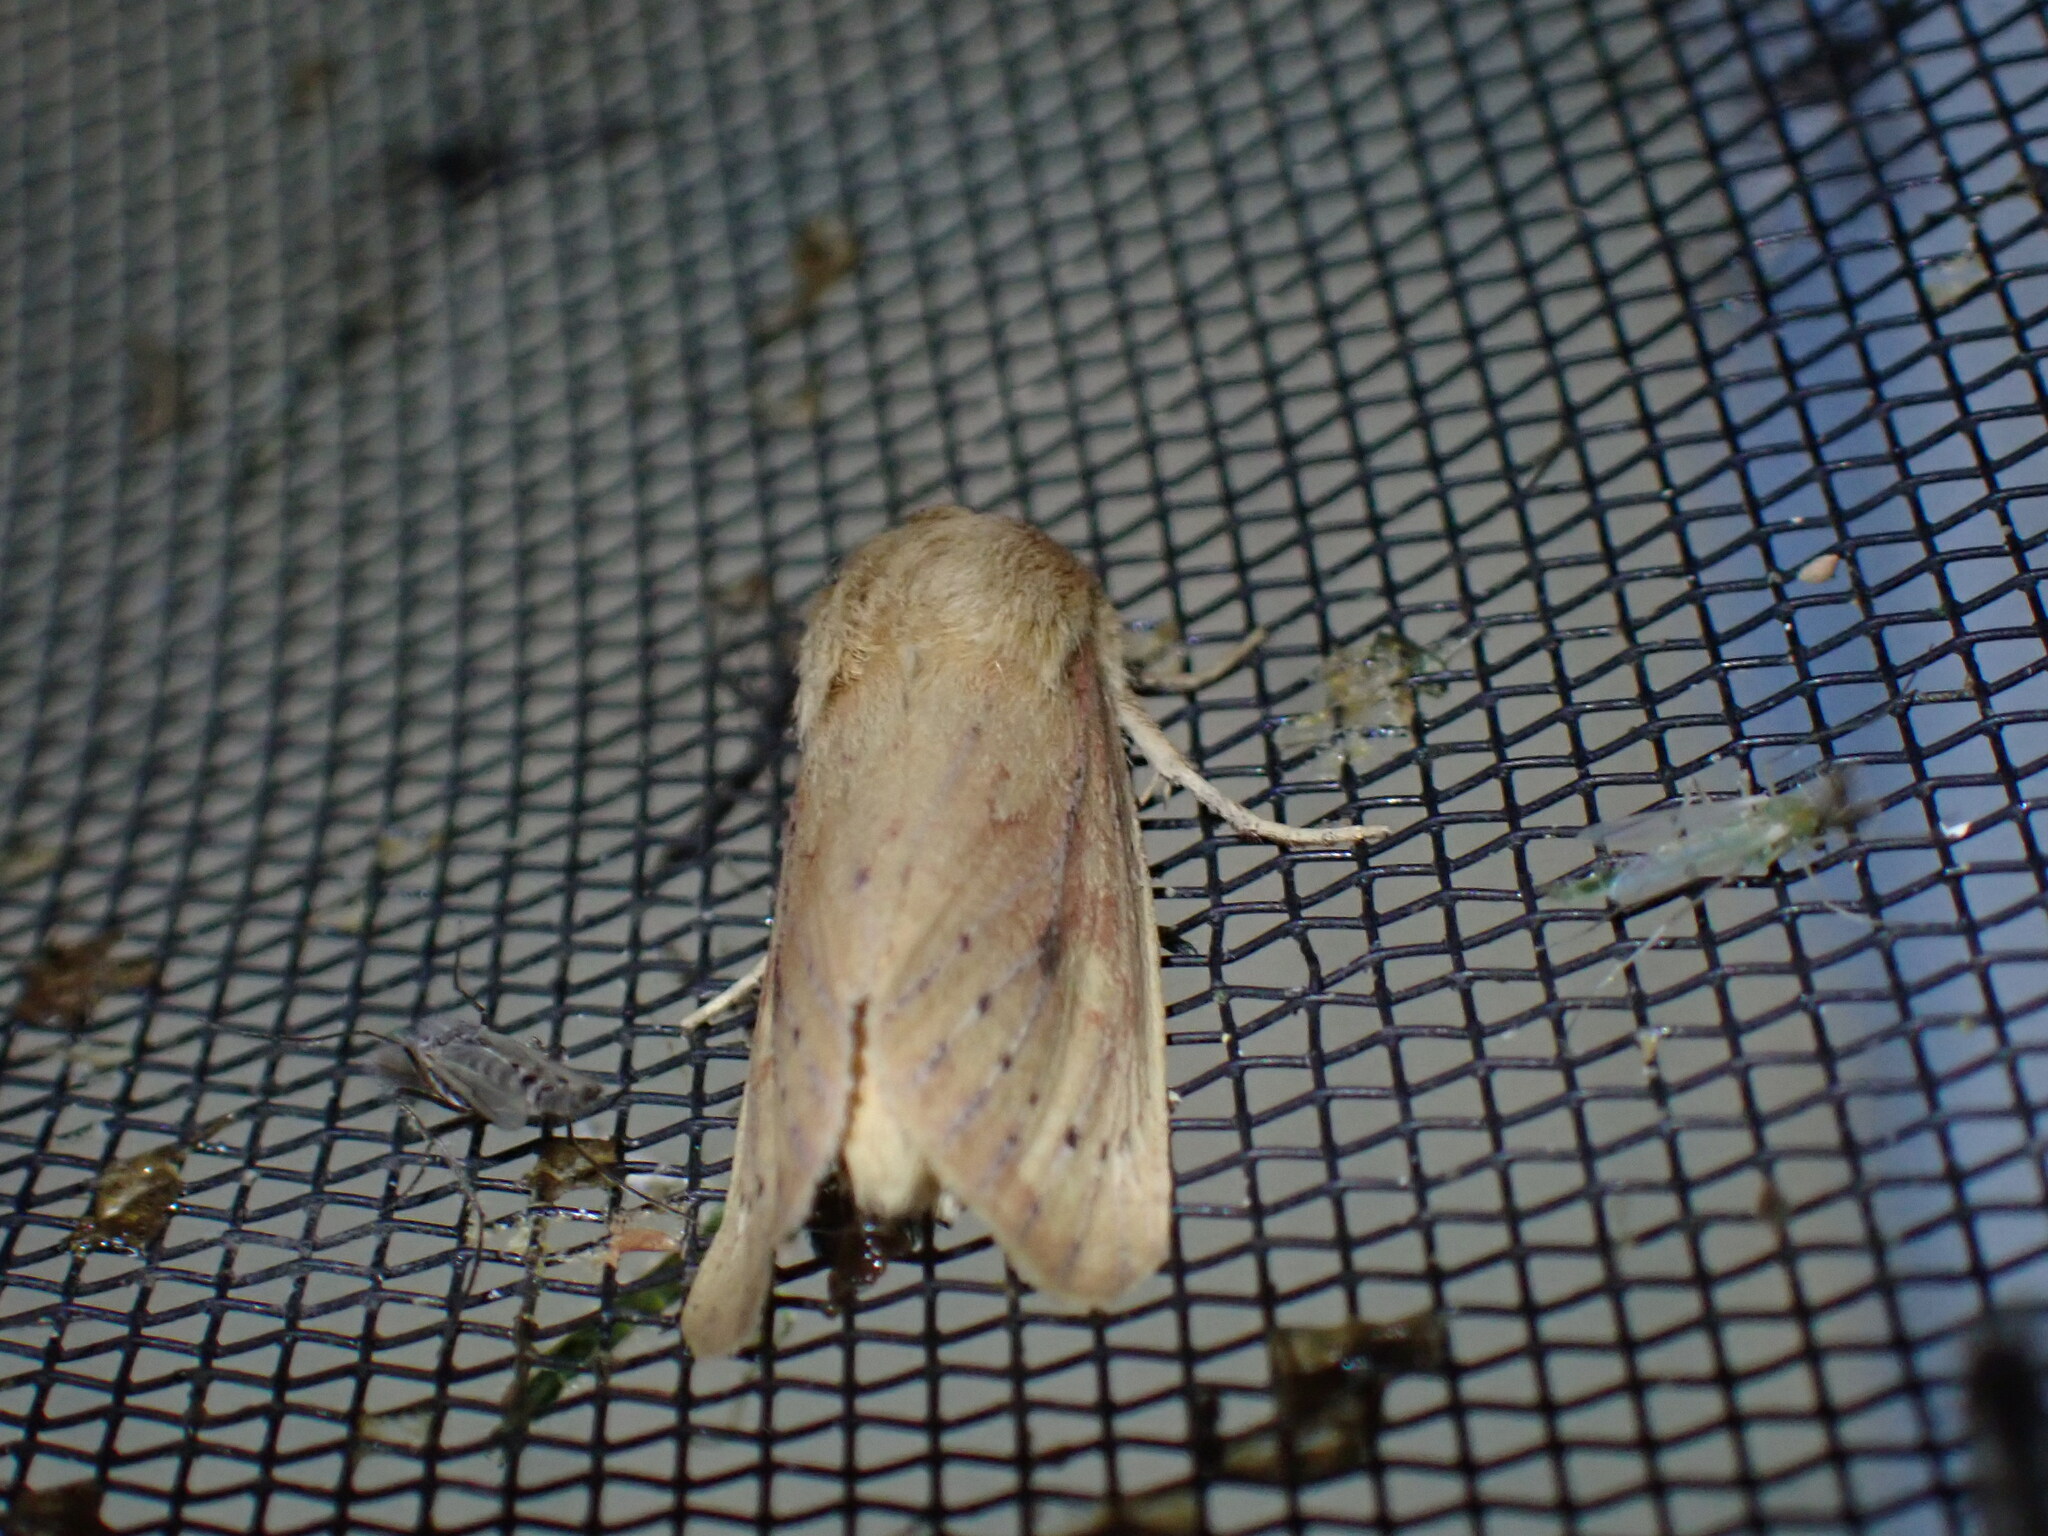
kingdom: Animalia
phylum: Arthropoda
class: Insecta
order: Lepidoptera
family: Noctuidae
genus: Globia
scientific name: Globia subflava
